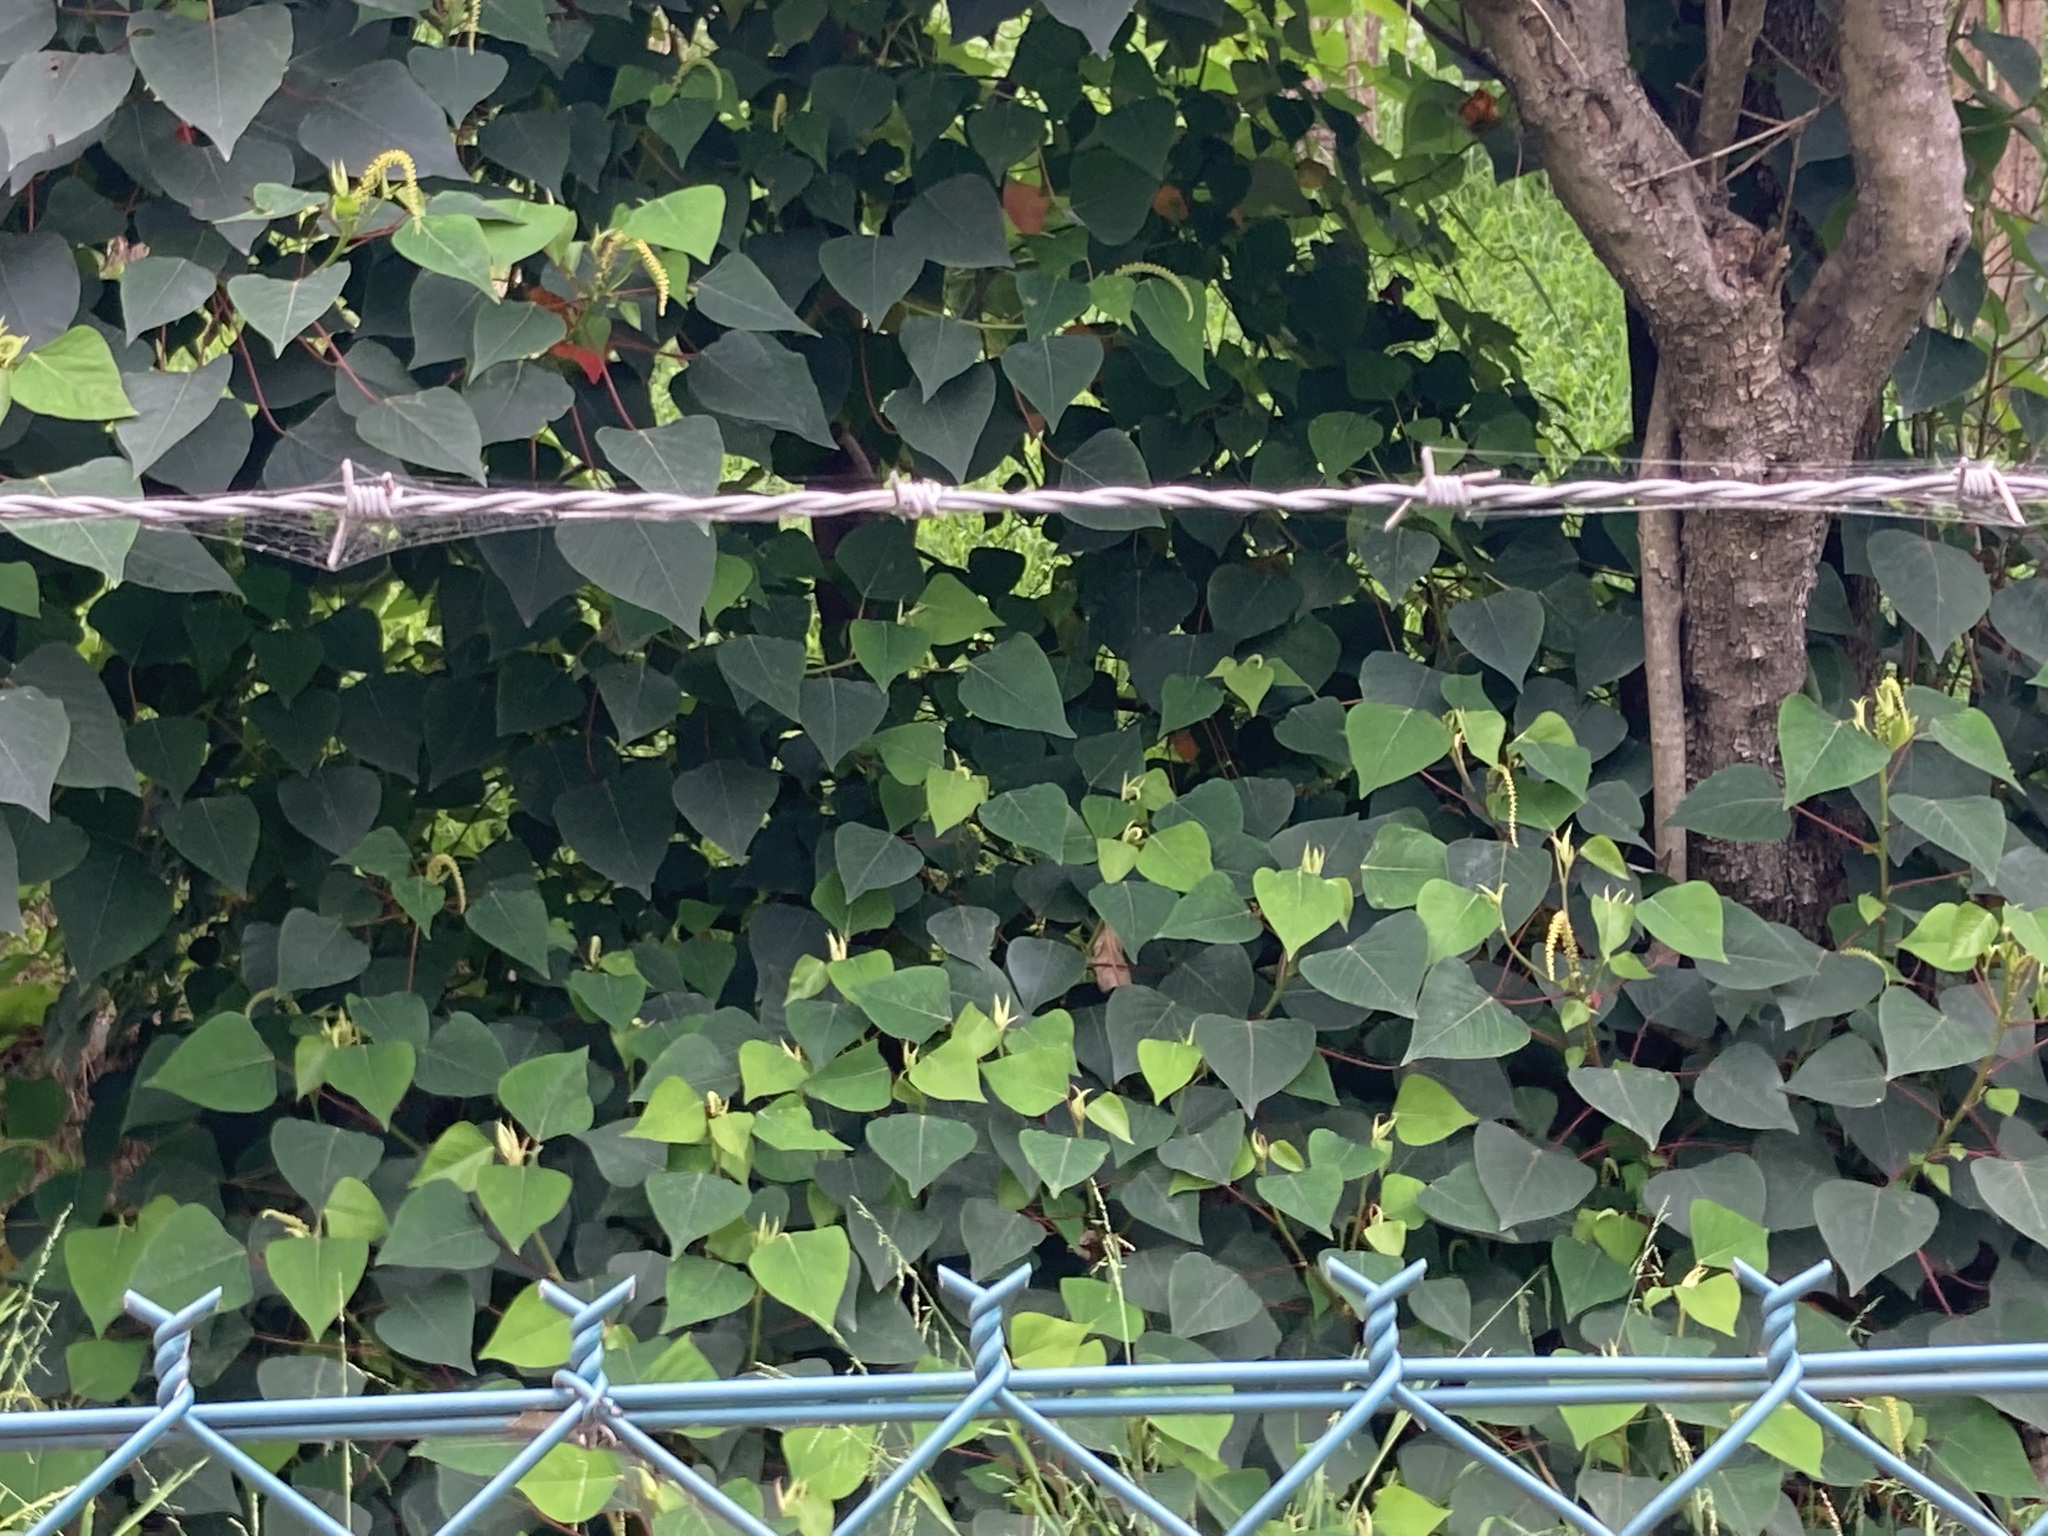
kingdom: Plantae
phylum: Tracheophyta
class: Magnoliopsida
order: Malpighiales
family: Euphorbiaceae
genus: Homalanthus
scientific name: Homalanthus populifolius
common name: Queensland poplar
